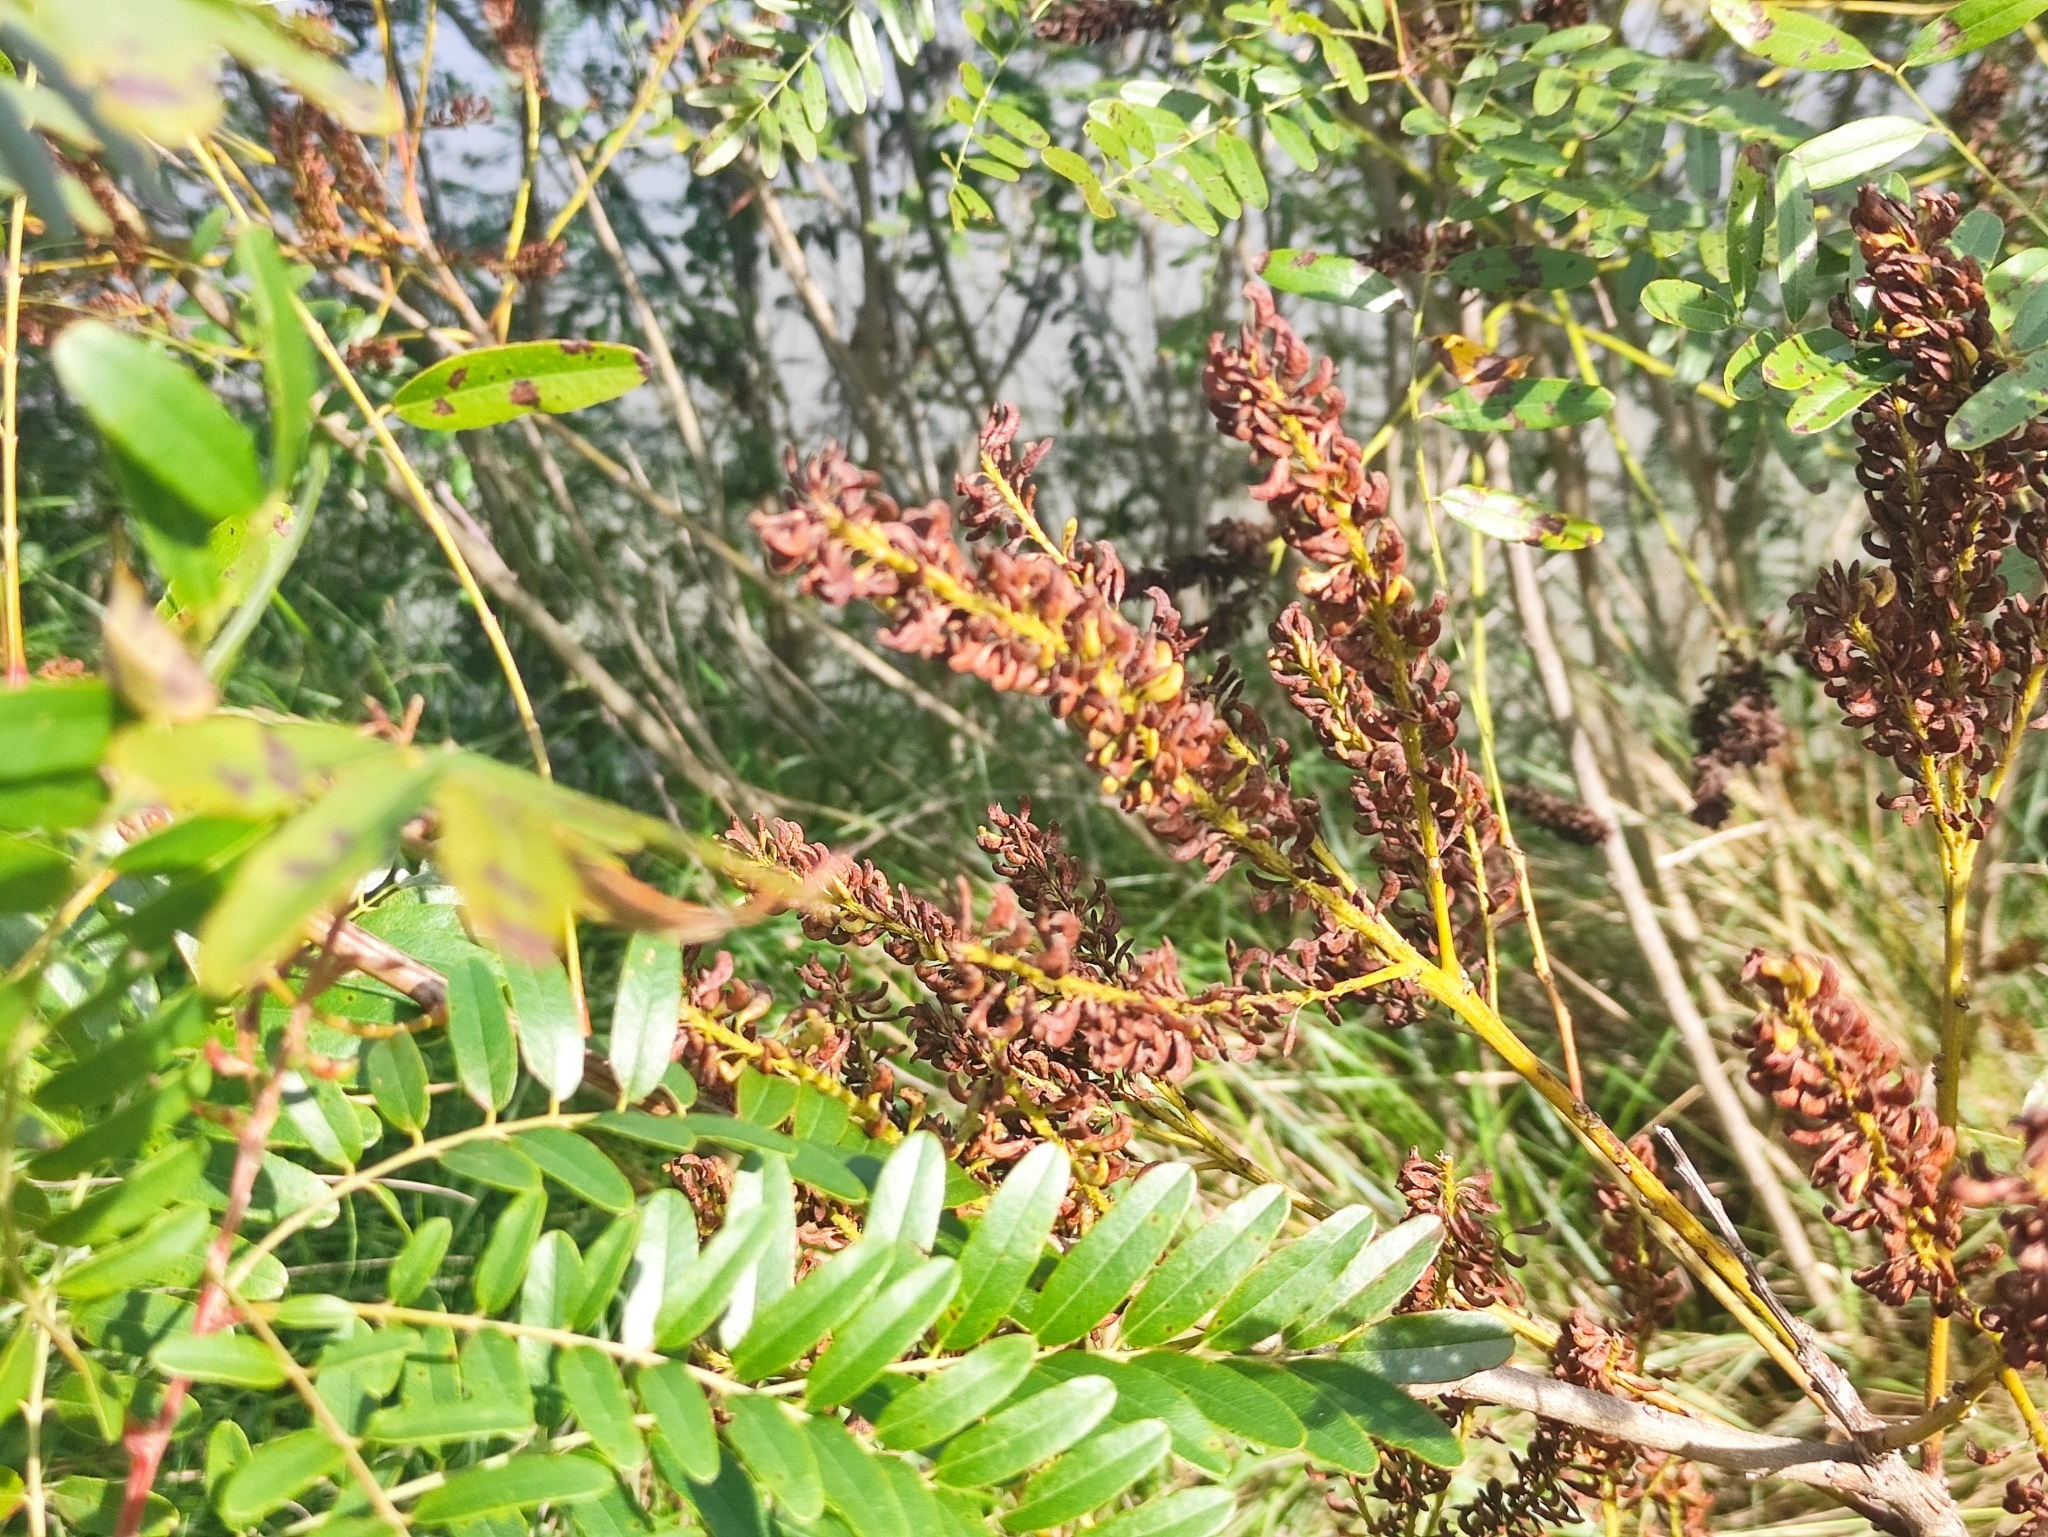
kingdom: Plantae
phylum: Tracheophyta
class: Magnoliopsida
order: Fabales
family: Fabaceae
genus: Amorpha
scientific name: Amorpha fruticosa
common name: False indigo
